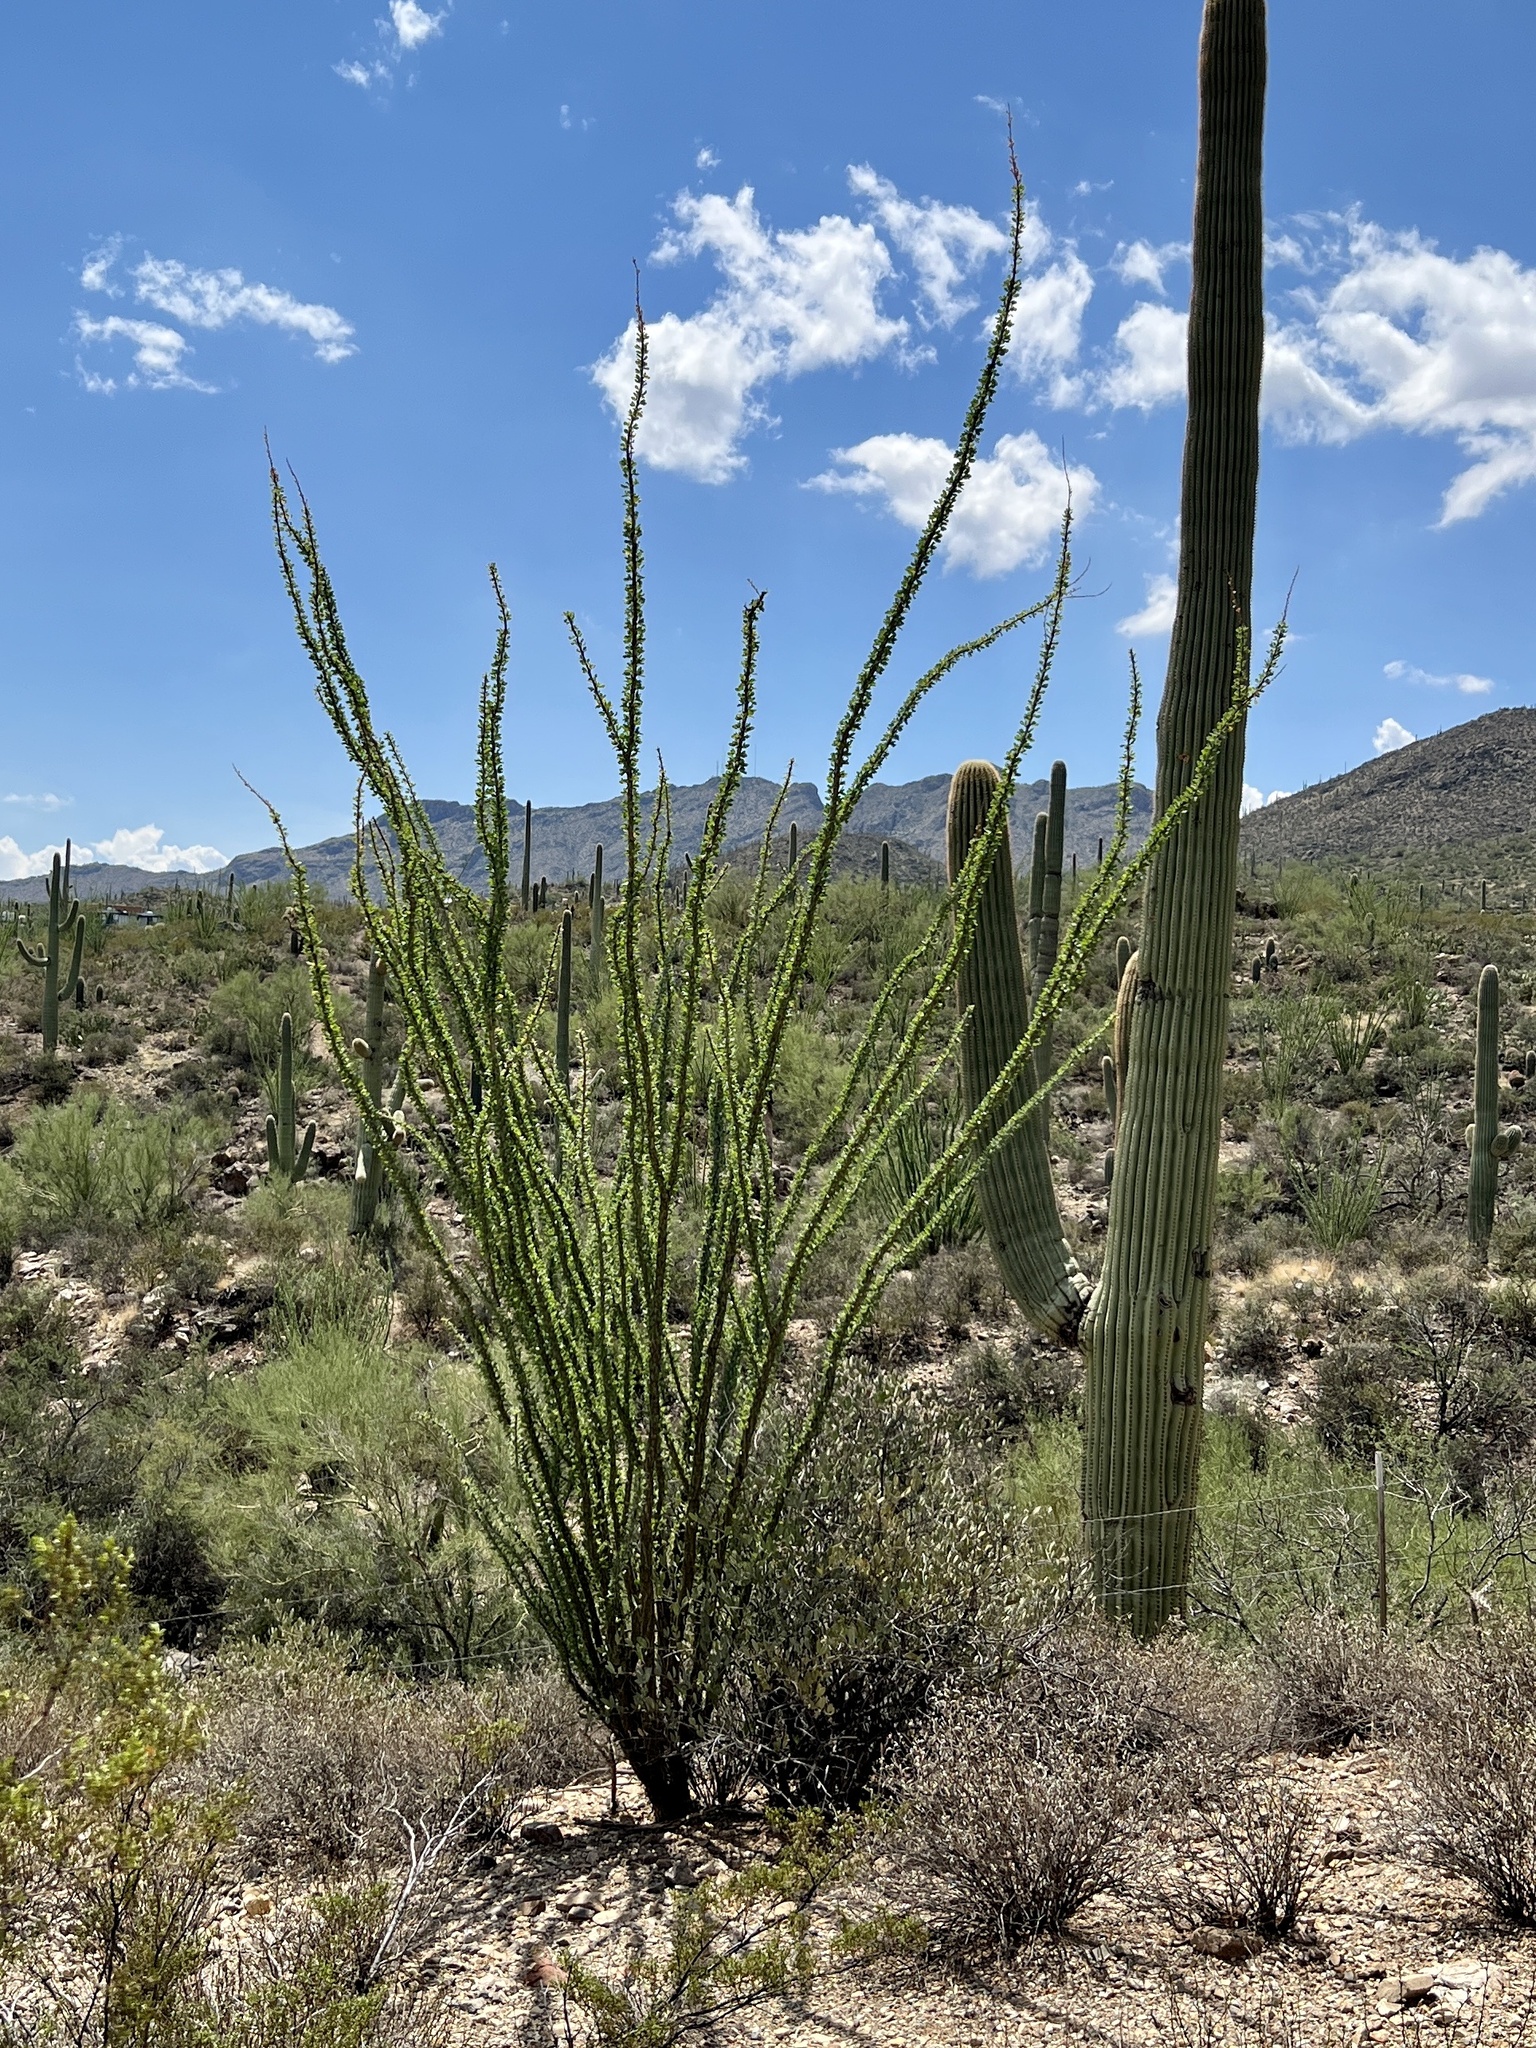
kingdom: Plantae
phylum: Tracheophyta
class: Magnoliopsida
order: Ericales
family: Fouquieriaceae
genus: Fouquieria
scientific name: Fouquieria splendens
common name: Vine-cactus
